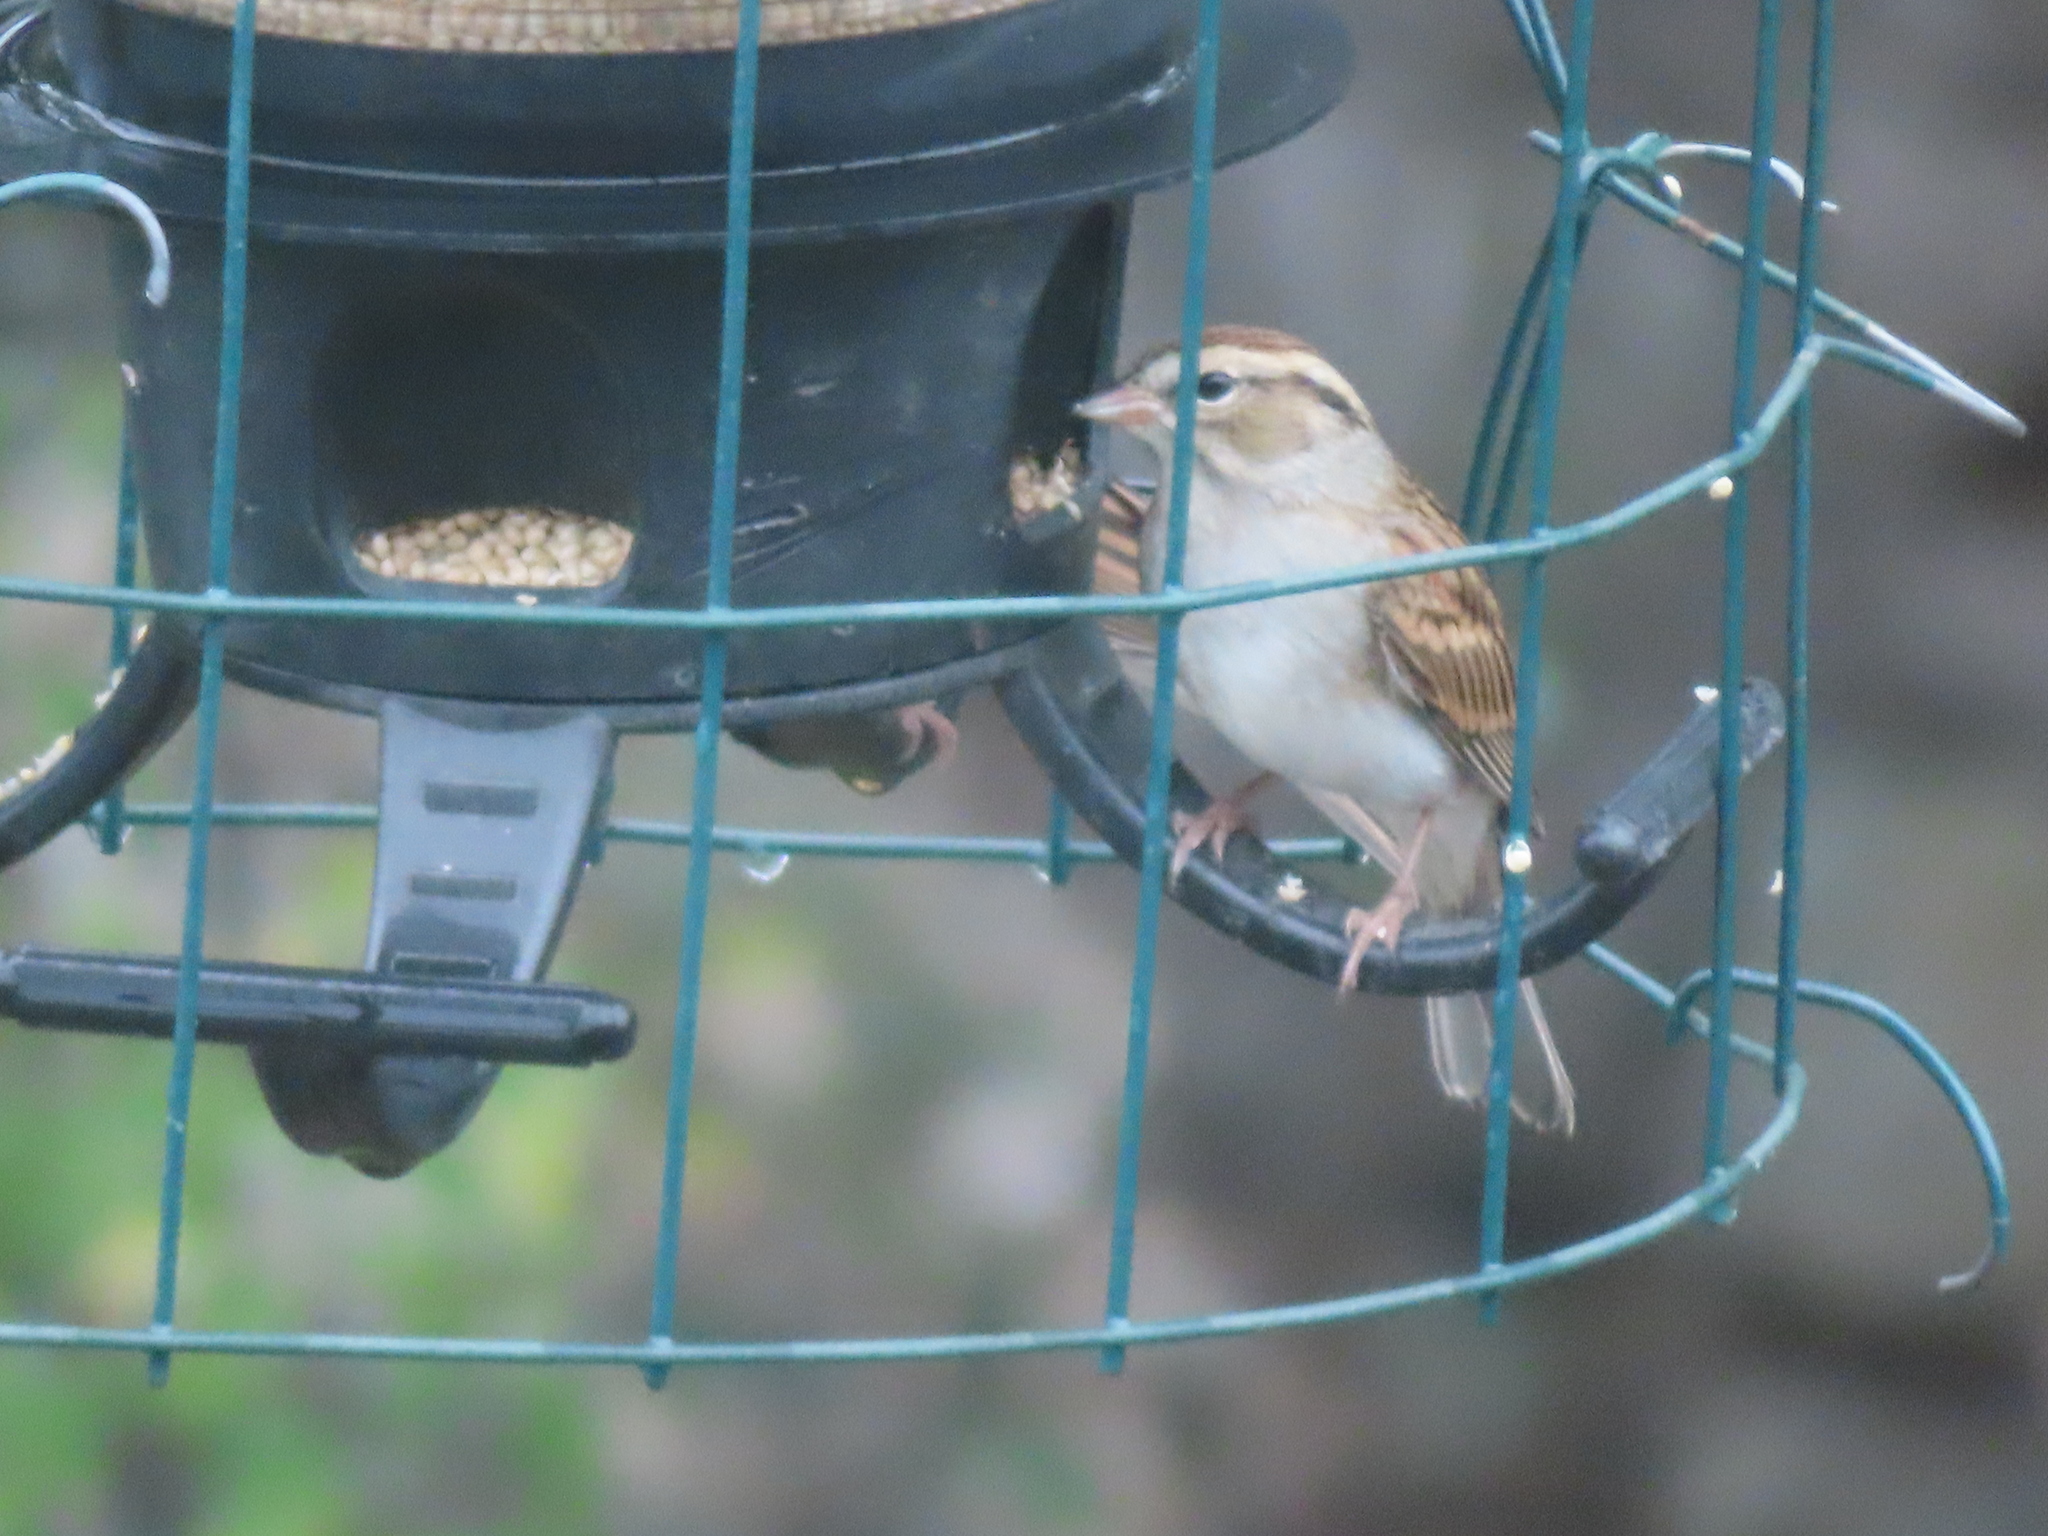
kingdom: Animalia
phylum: Chordata
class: Aves
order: Passeriformes
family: Passerellidae
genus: Spizella
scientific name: Spizella passerina
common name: Chipping sparrow
